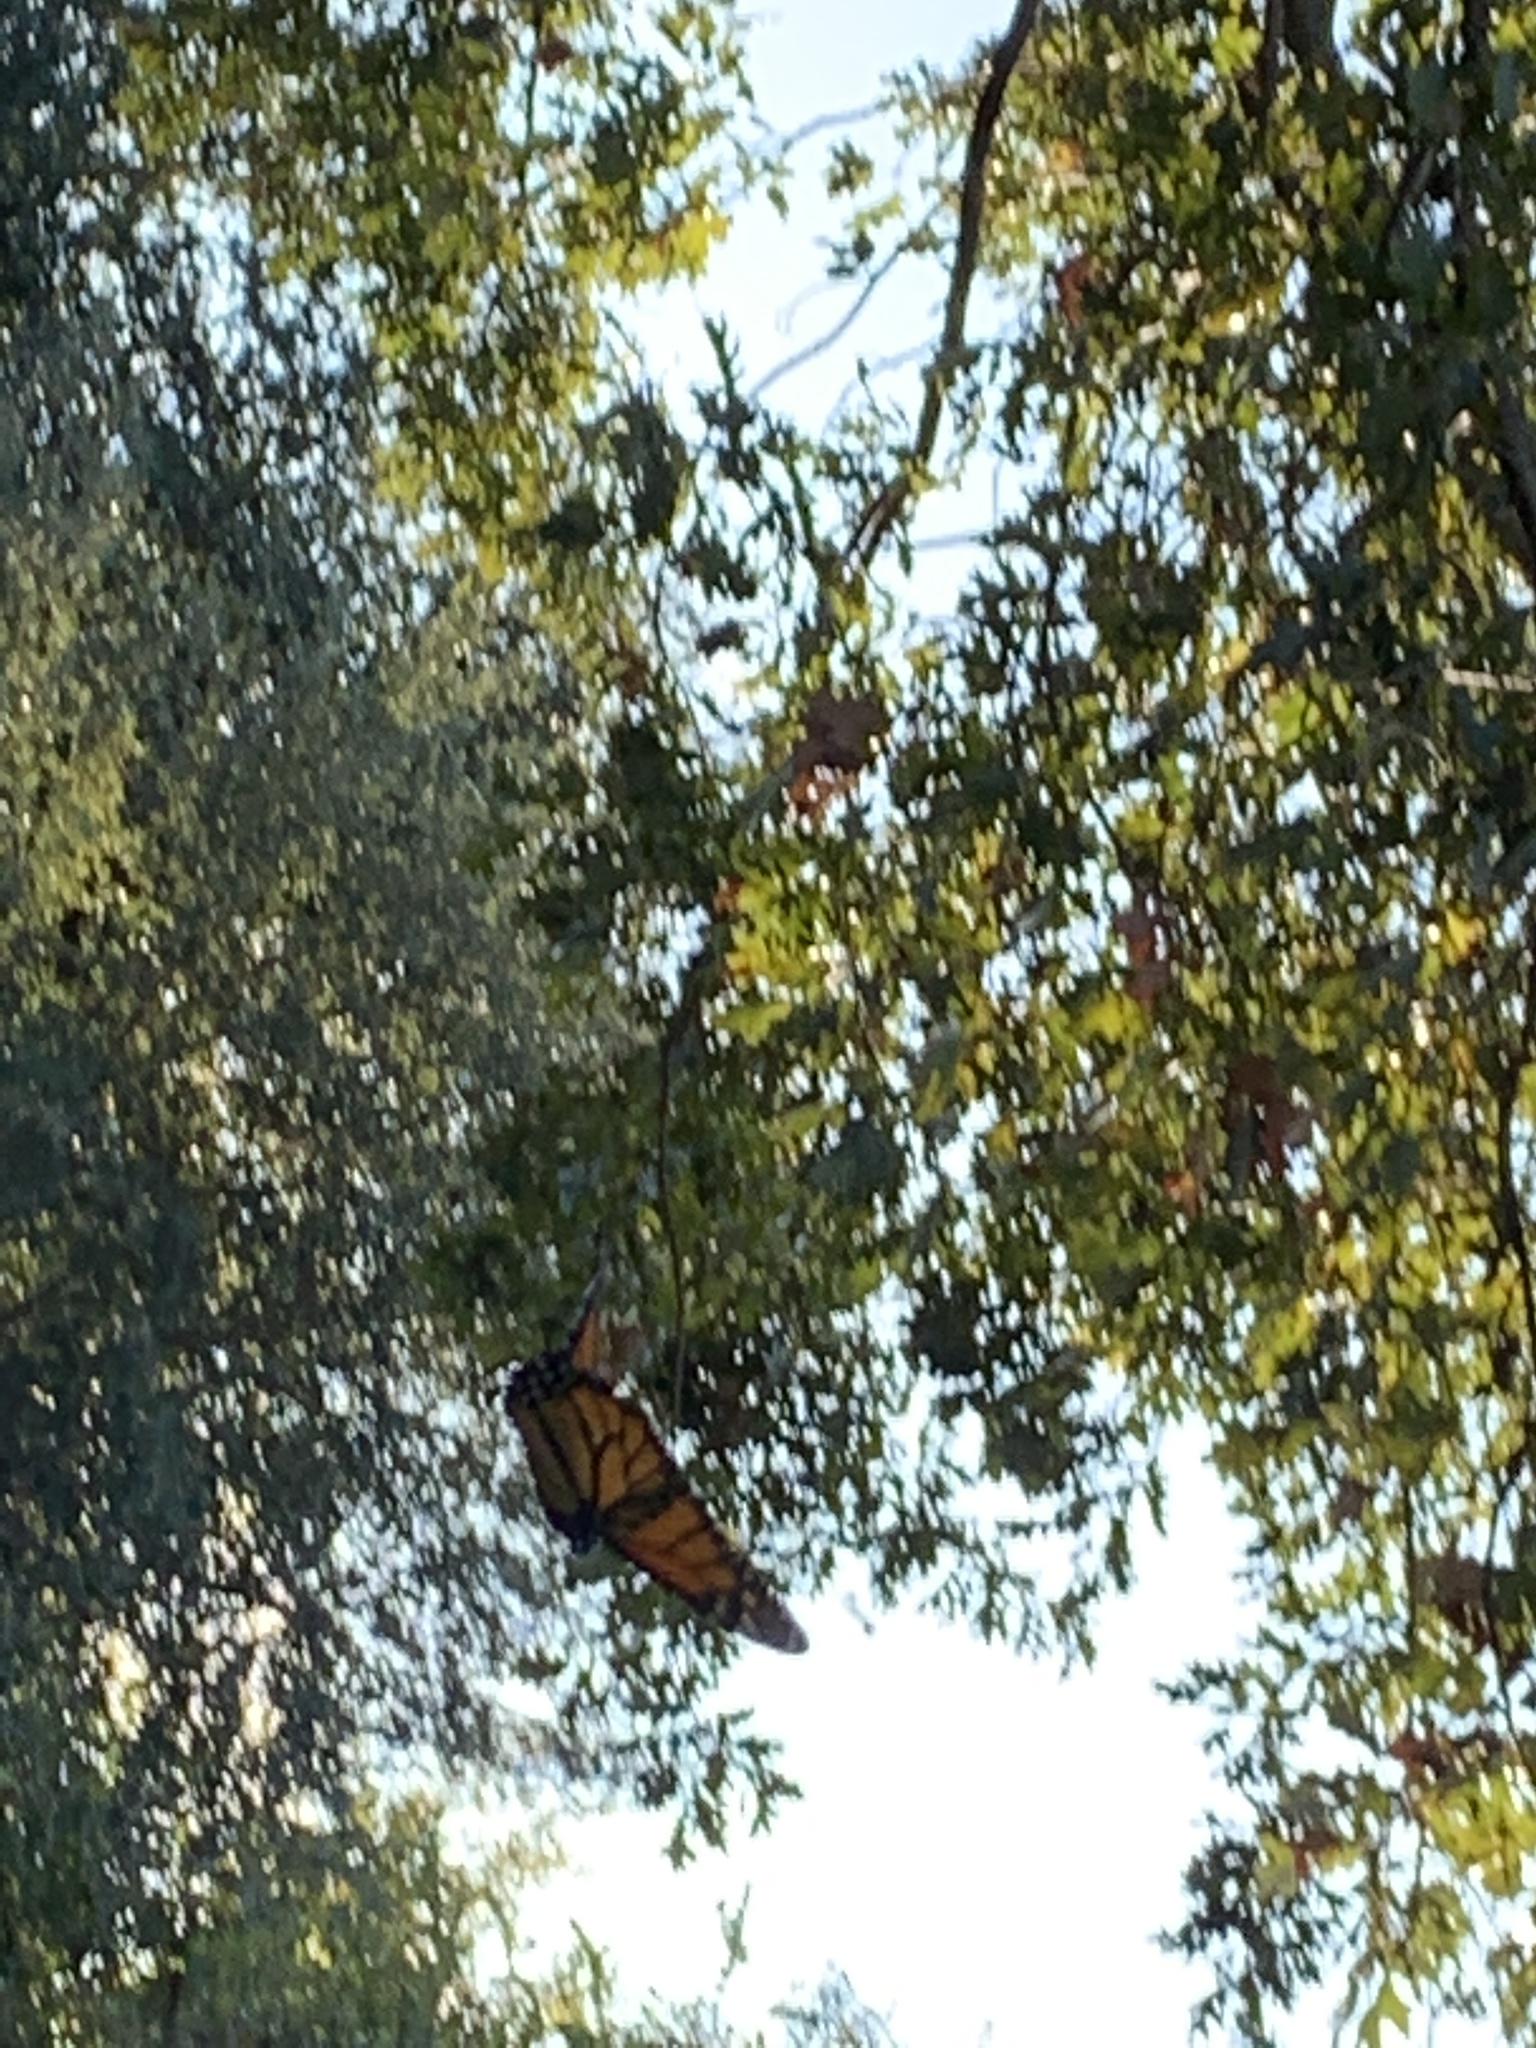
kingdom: Animalia
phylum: Arthropoda
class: Insecta
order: Lepidoptera
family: Nymphalidae
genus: Danaus
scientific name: Danaus plexippus
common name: Monarch
